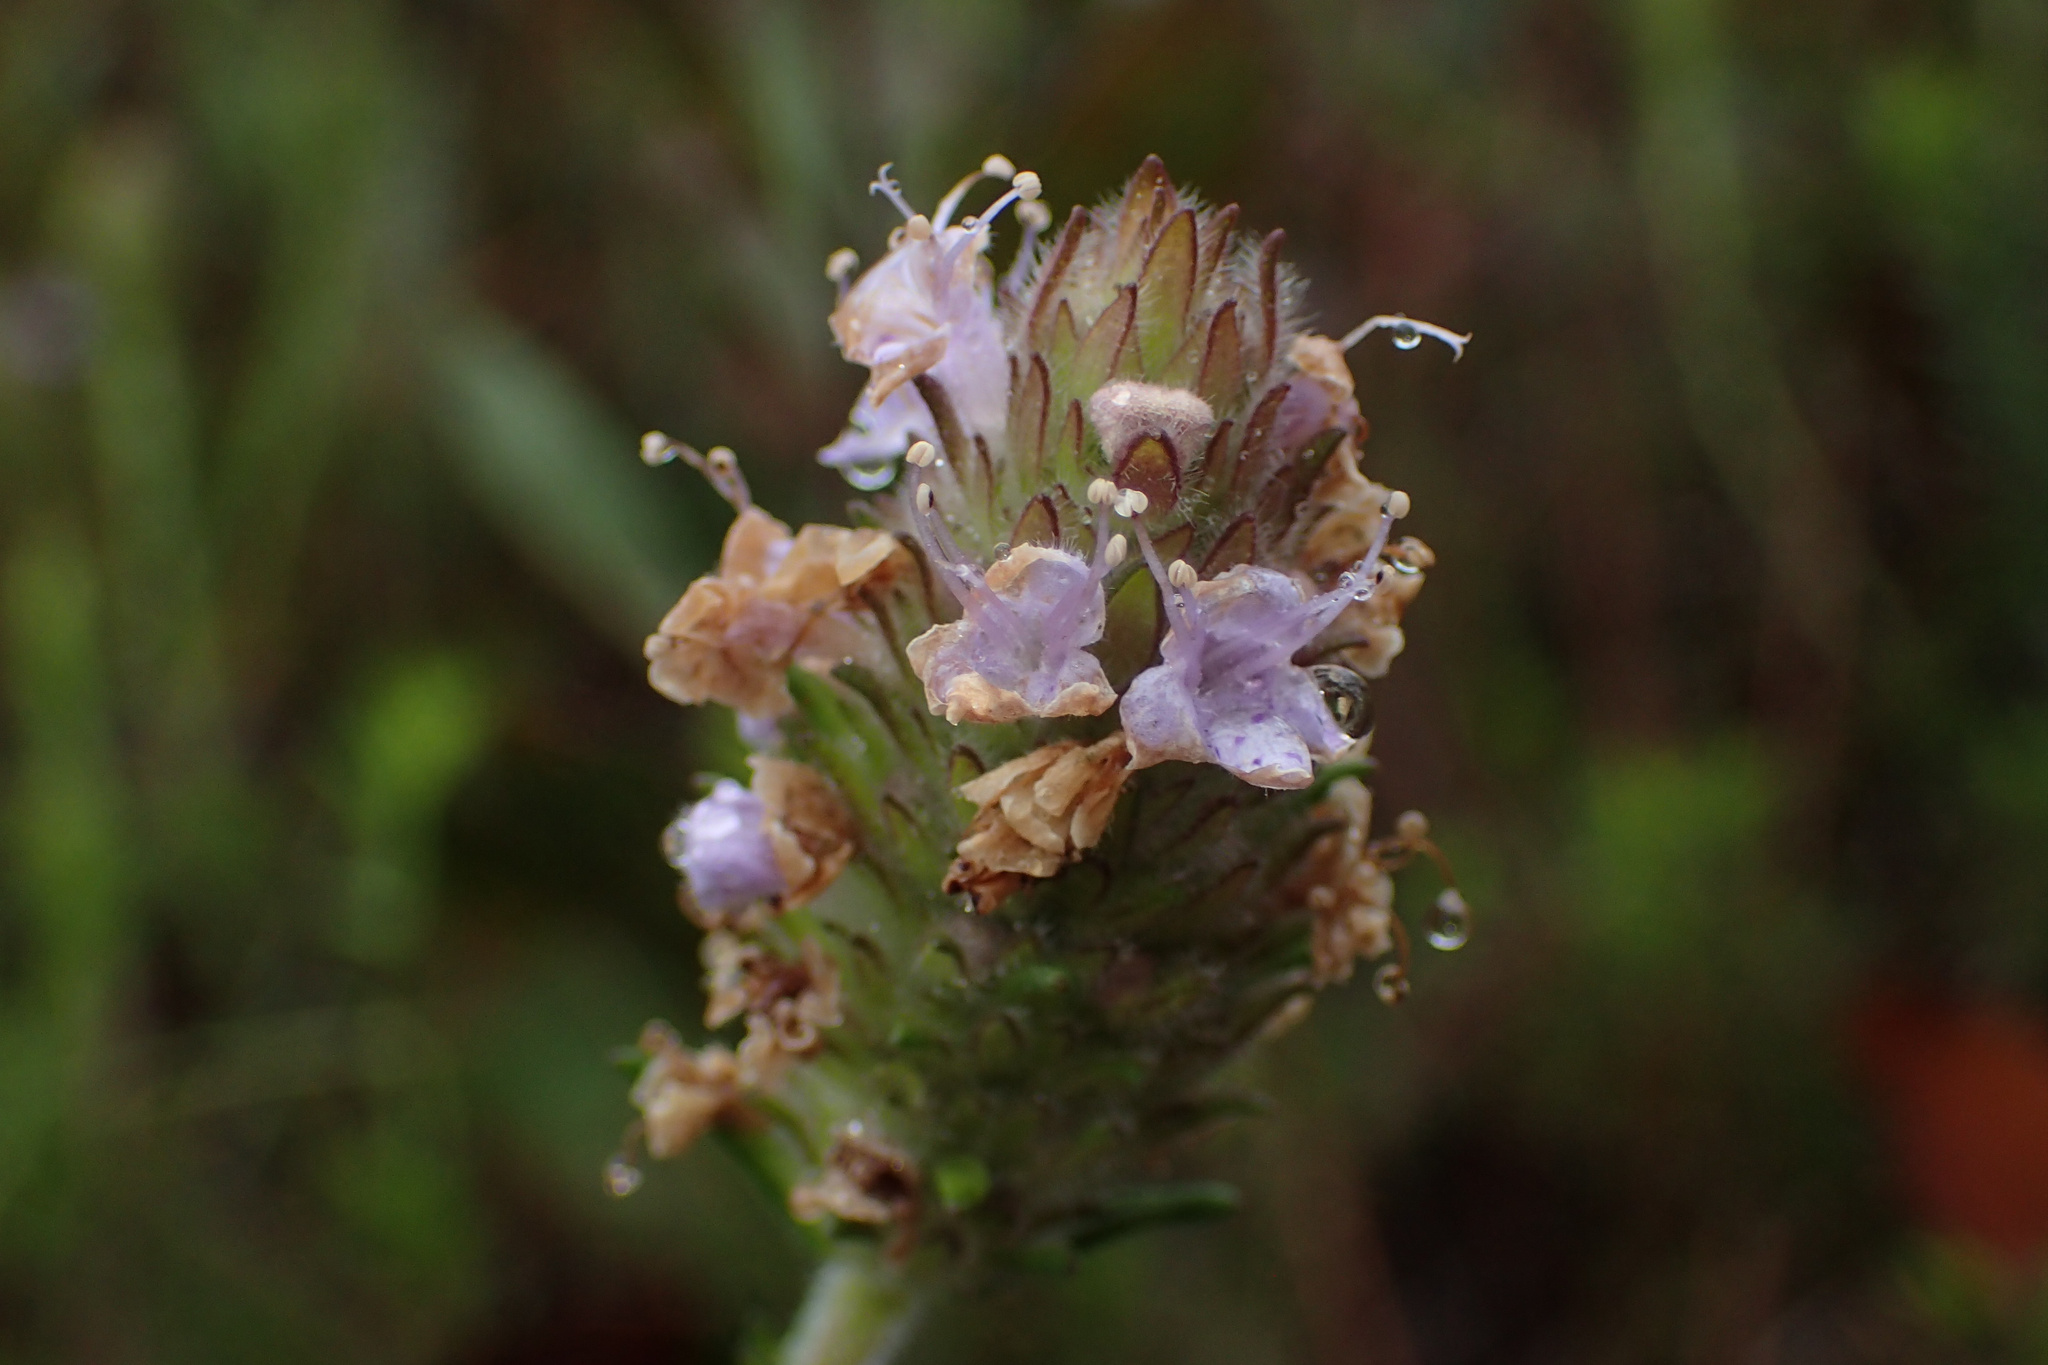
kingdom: Plantae
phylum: Tracheophyta
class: Magnoliopsida
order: Lamiales
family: Lamiaceae
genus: Piloblephis
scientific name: Piloblephis rigida
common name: Wild pennyroyal
